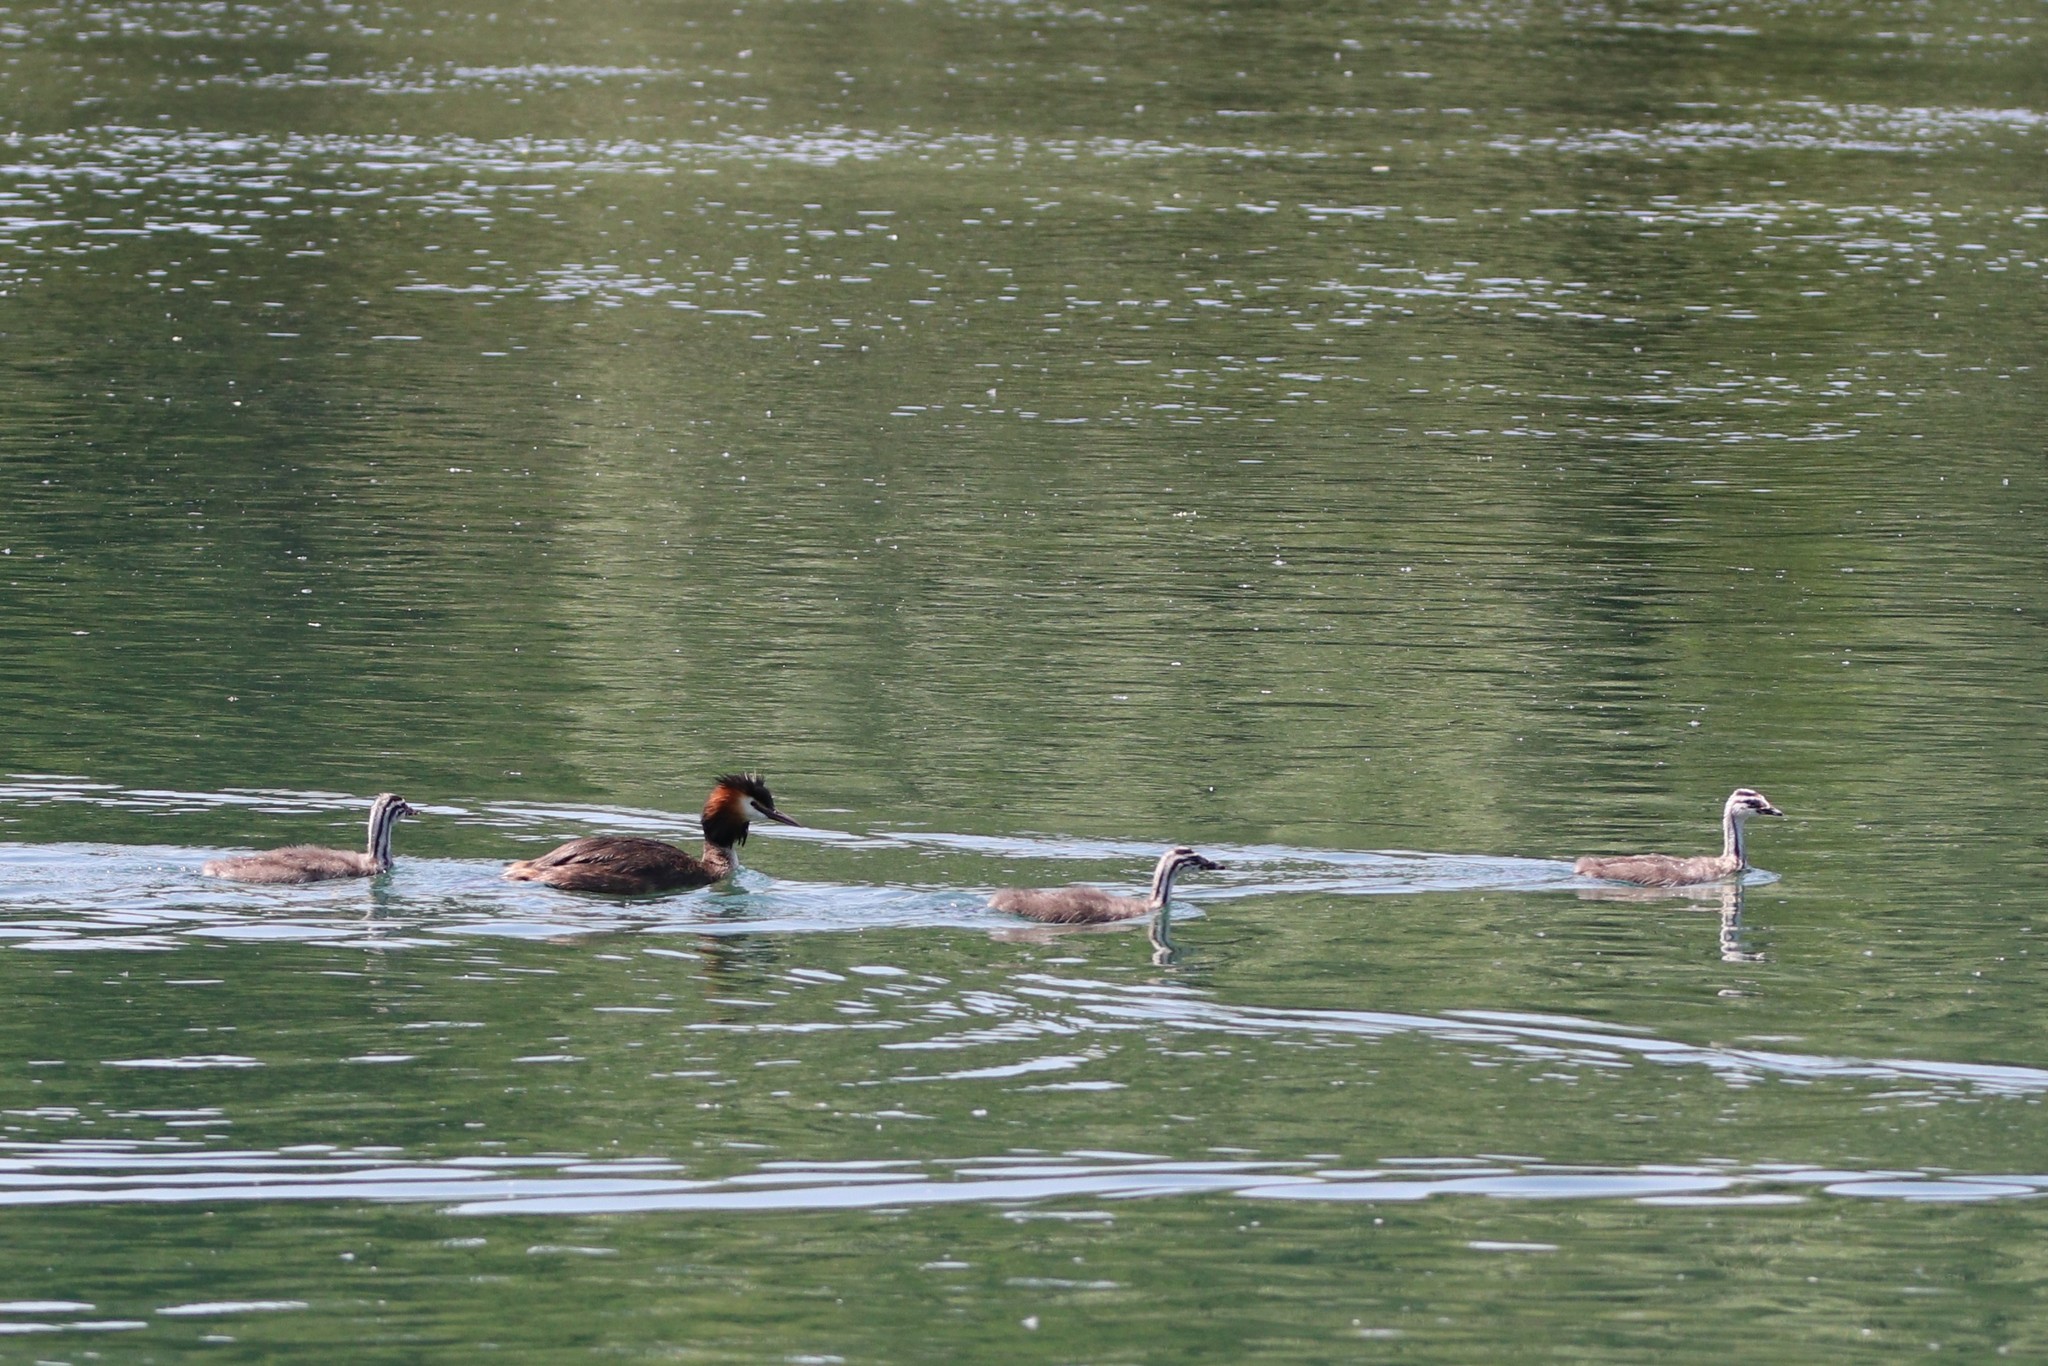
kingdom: Animalia
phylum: Chordata
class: Aves
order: Podicipediformes
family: Podicipedidae
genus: Podiceps
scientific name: Podiceps cristatus
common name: Great crested grebe
